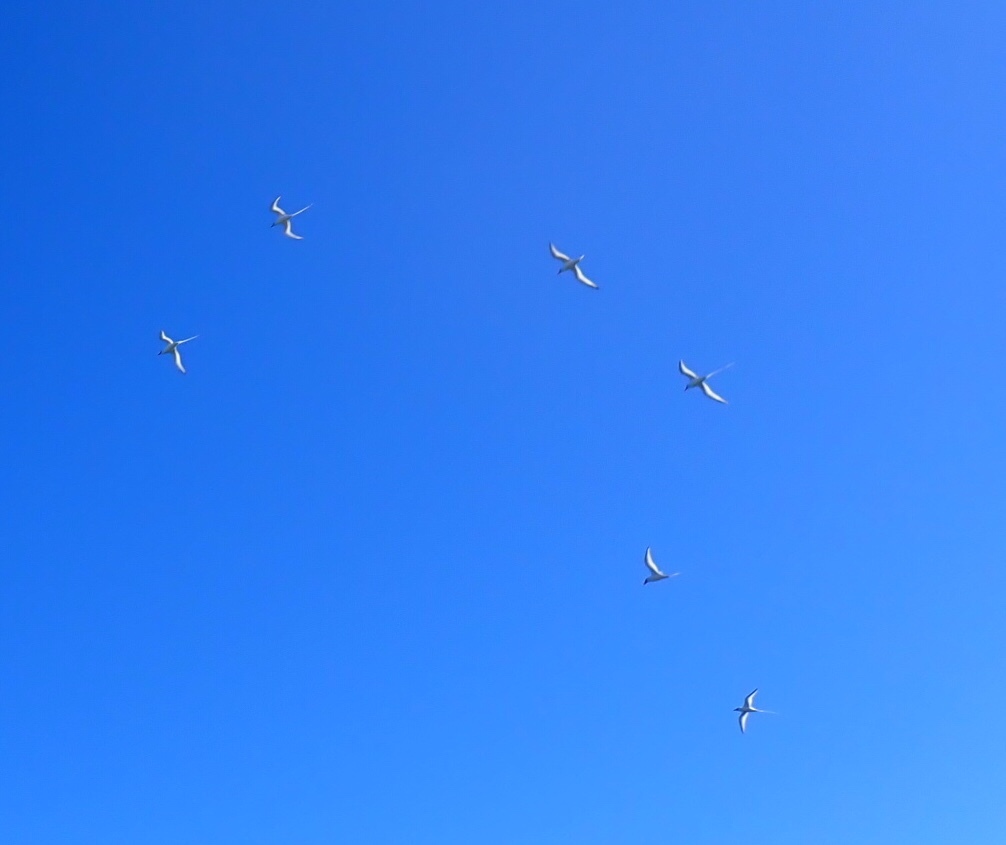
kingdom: Animalia
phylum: Chordata
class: Aves
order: Phaethontiformes
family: Phaethontidae
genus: Phaethon
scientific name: Phaethon aethereus
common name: Red-billed tropicbird
